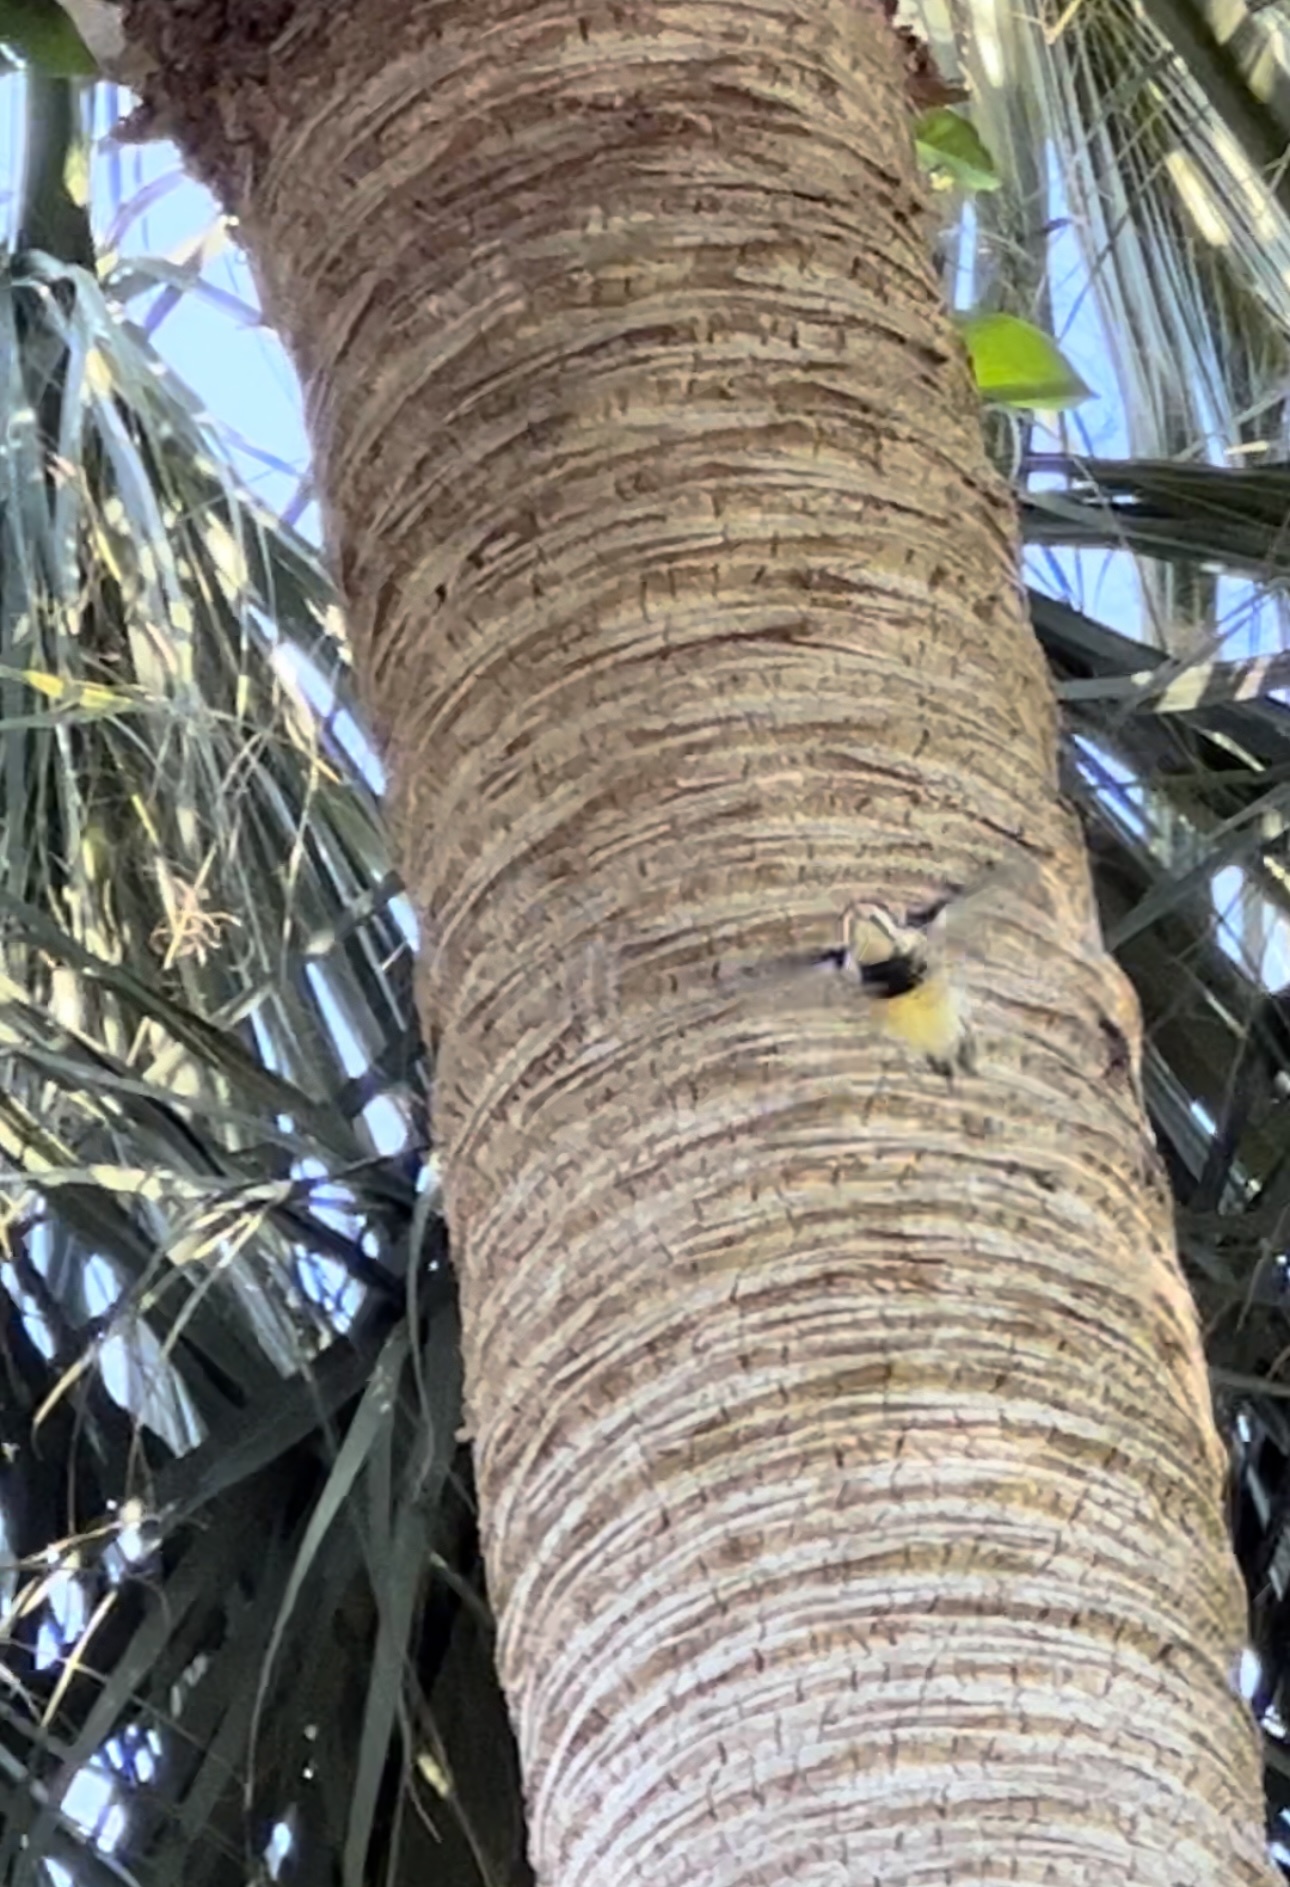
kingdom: Animalia
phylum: Chordata
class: Aves
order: Piciformes
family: Picidae
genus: Sphyrapicus
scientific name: Sphyrapicus varius
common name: Yellow-bellied sapsucker
